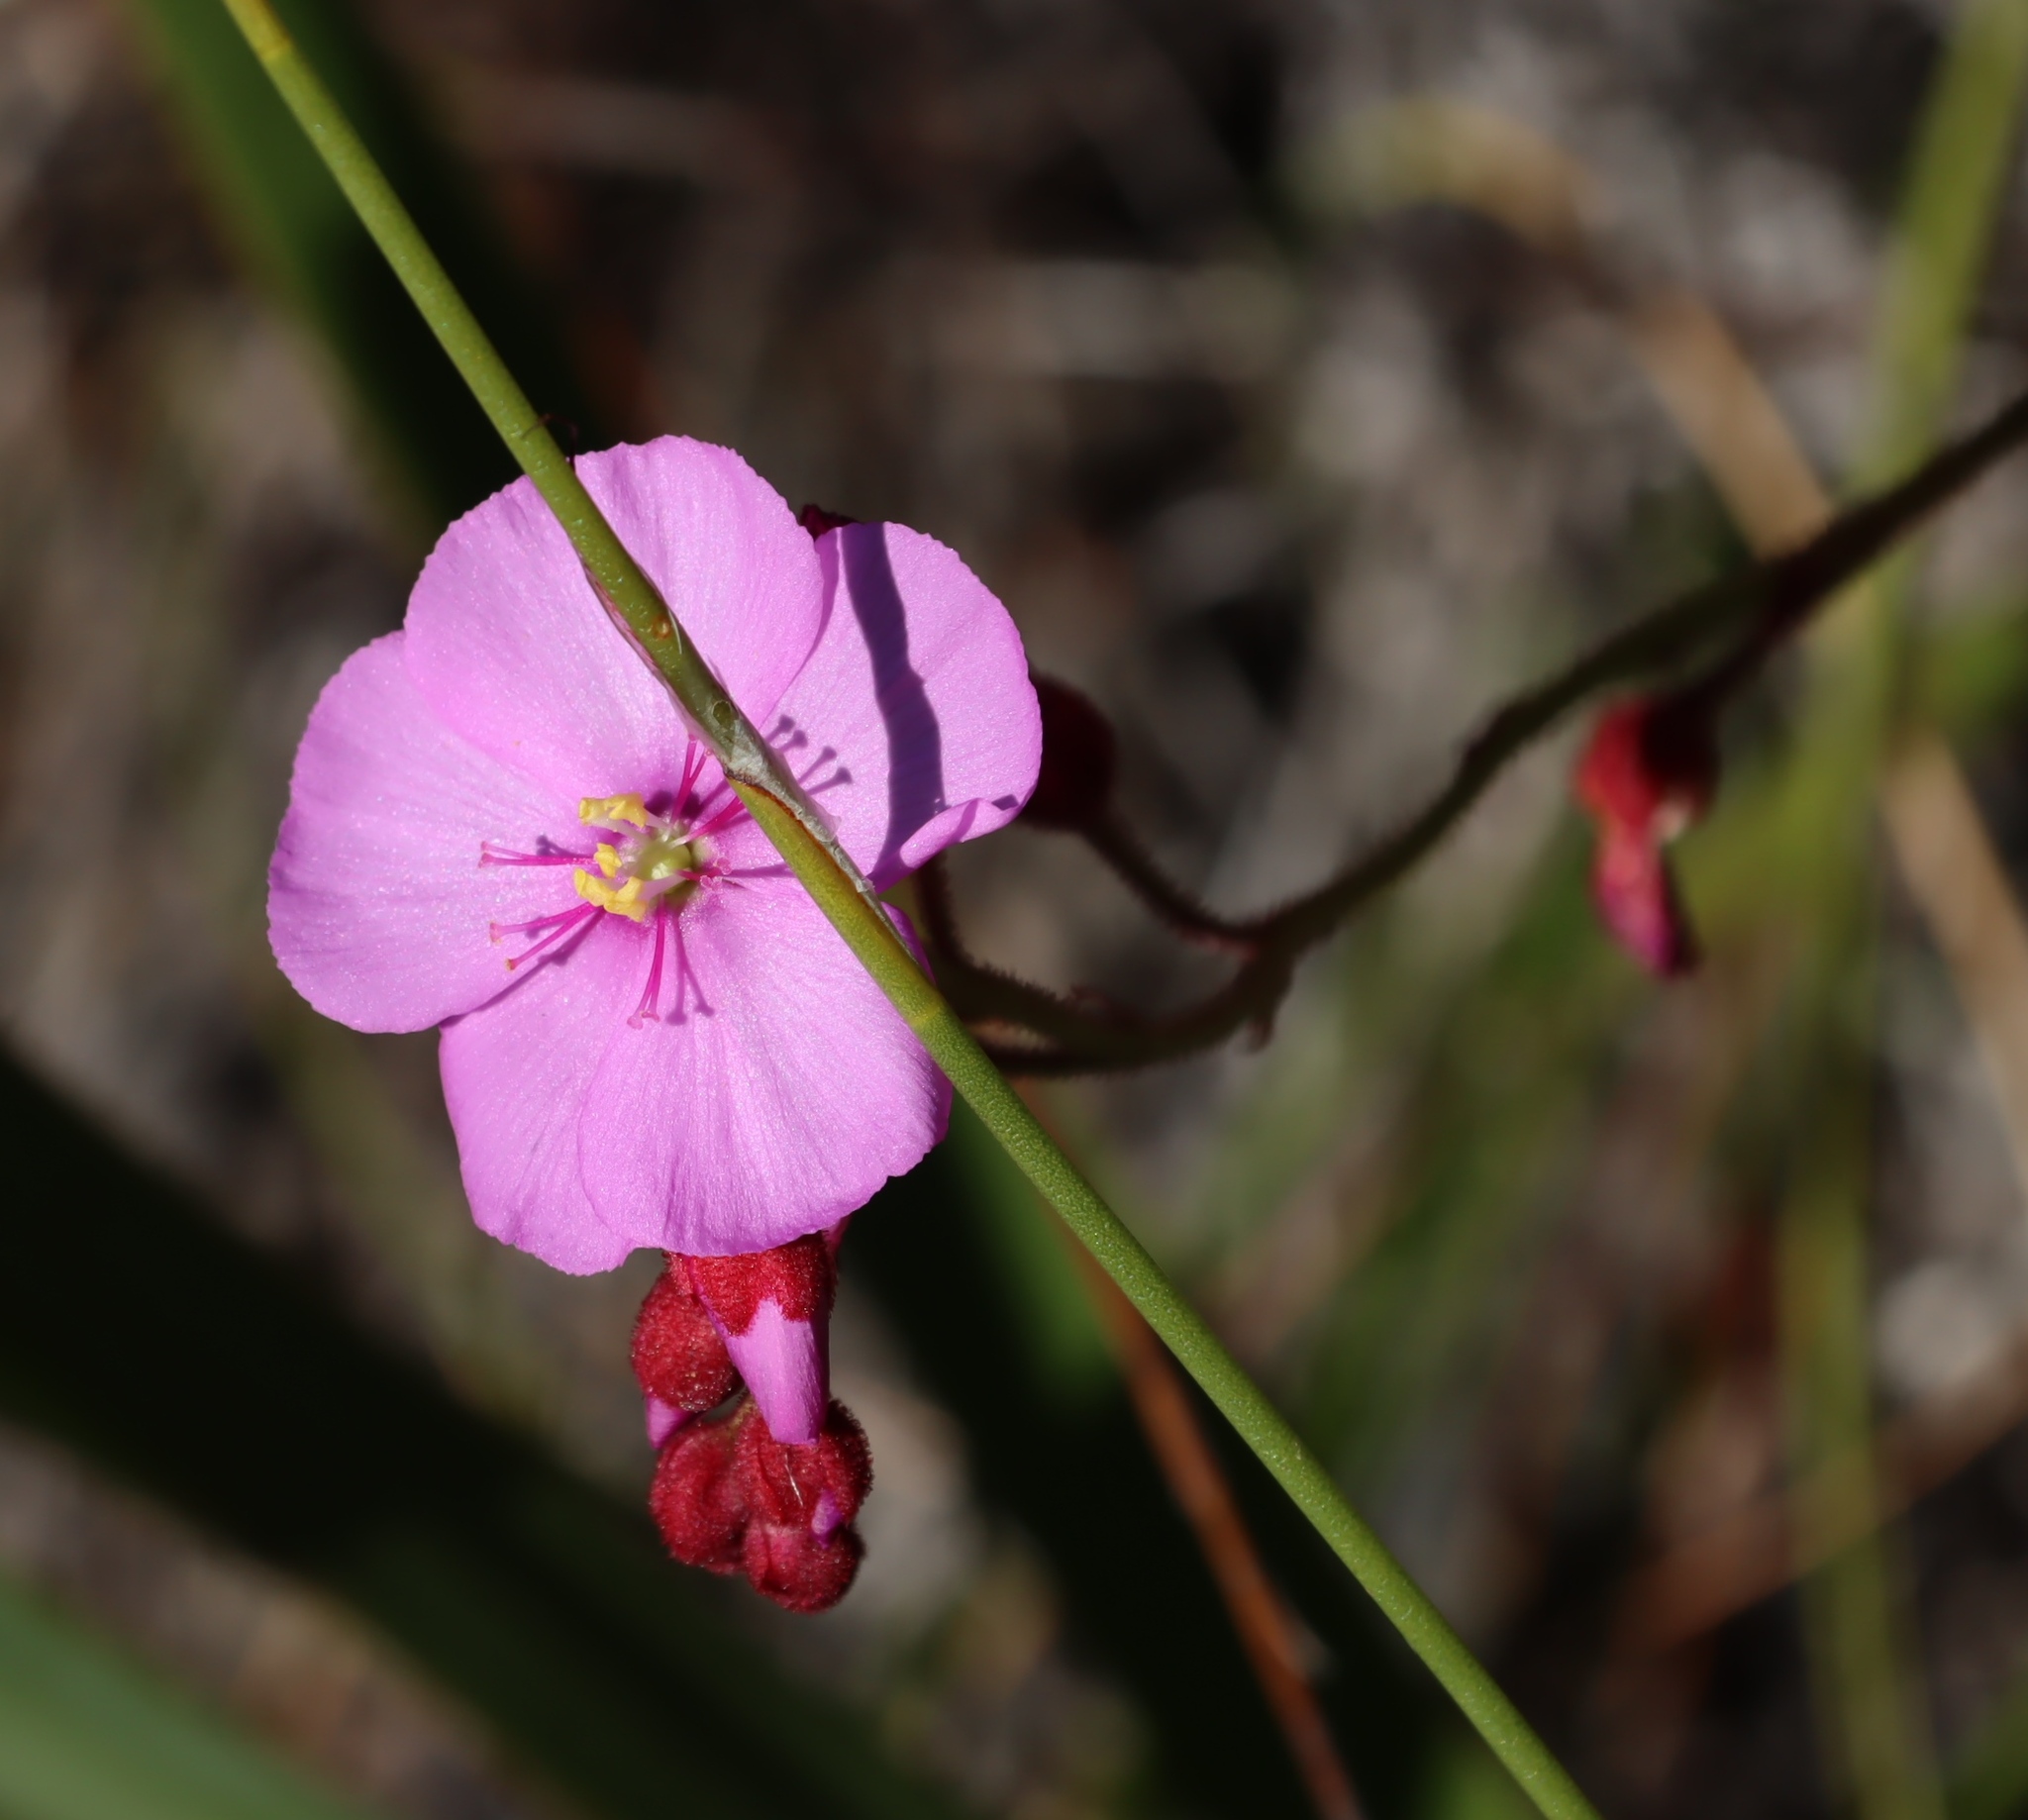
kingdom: Plantae
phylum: Tracheophyta
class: Magnoliopsida
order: Caryophyllales
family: Droseraceae
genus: Drosera
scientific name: Drosera glabripes
